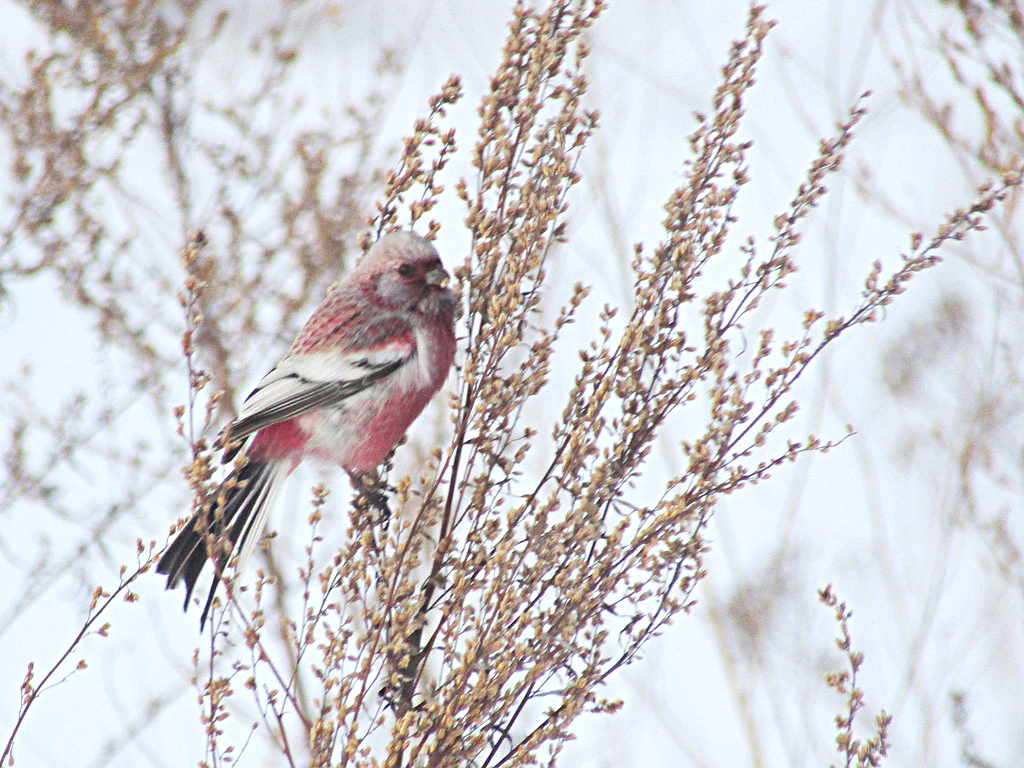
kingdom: Animalia
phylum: Chordata
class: Aves
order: Passeriformes
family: Fringillidae
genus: Carpodacus
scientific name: Carpodacus sibiricus
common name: Long-tailed rosefinch
